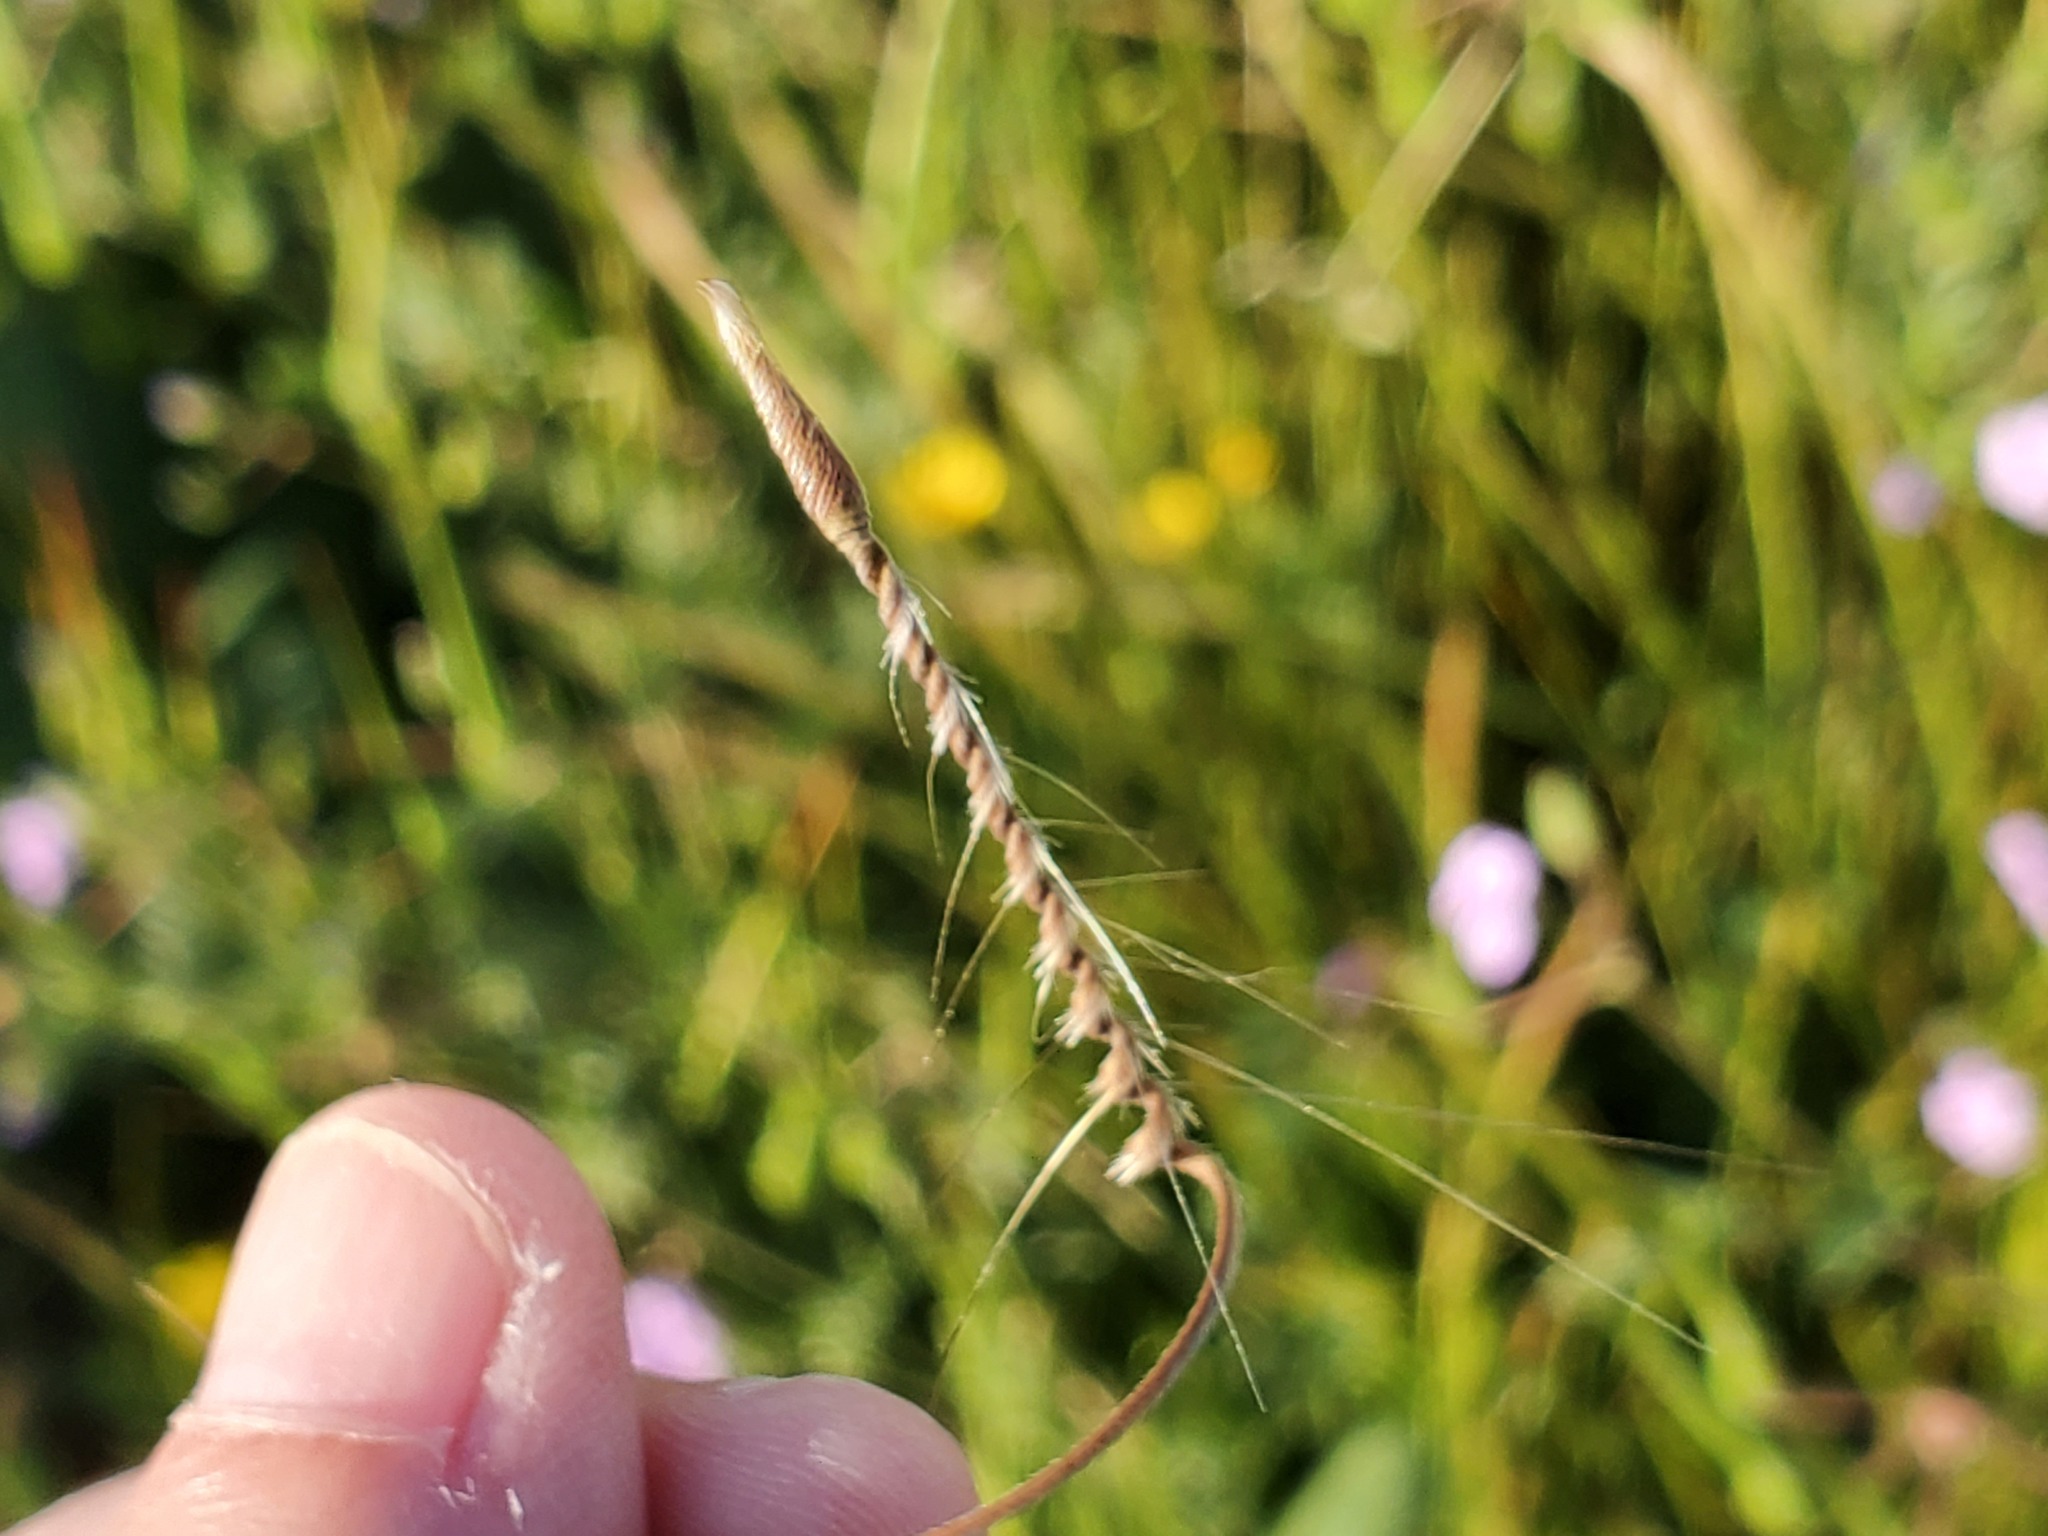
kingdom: Plantae
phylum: Tracheophyta
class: Magnoliopsida
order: Geraniales
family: Geraniaceae
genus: Erodium
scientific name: Erodium botrys
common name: Mediterranean stork's-bill
